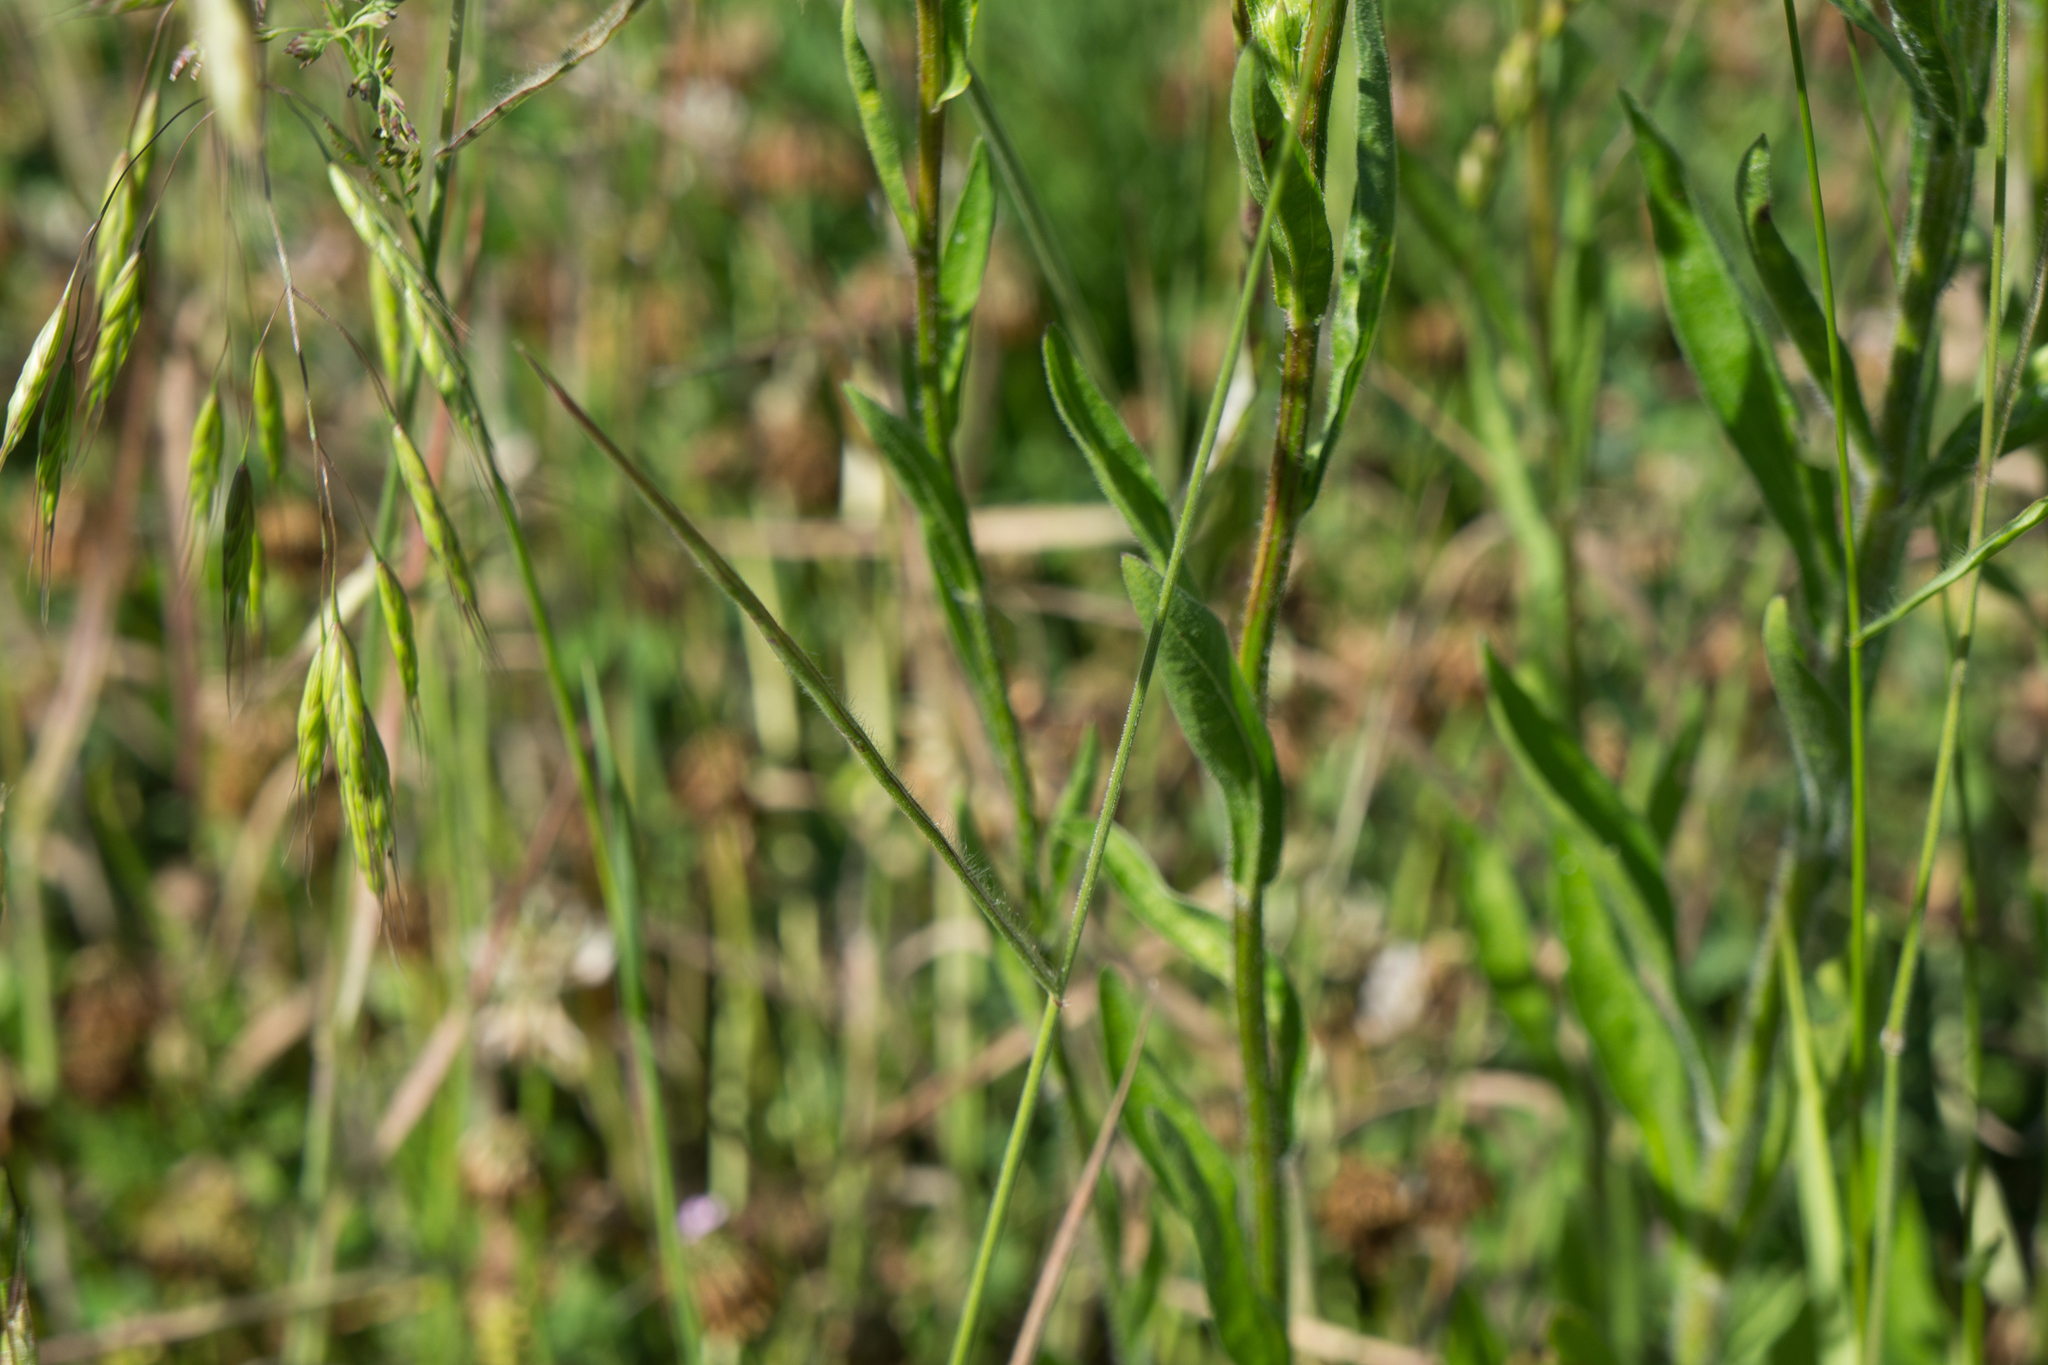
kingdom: Plantae
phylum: Tracheophyta
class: Magnoliopsida
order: Asterales
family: Asteraceae
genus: Erigeron
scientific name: Erigeron annuus
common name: Tall fleabane
